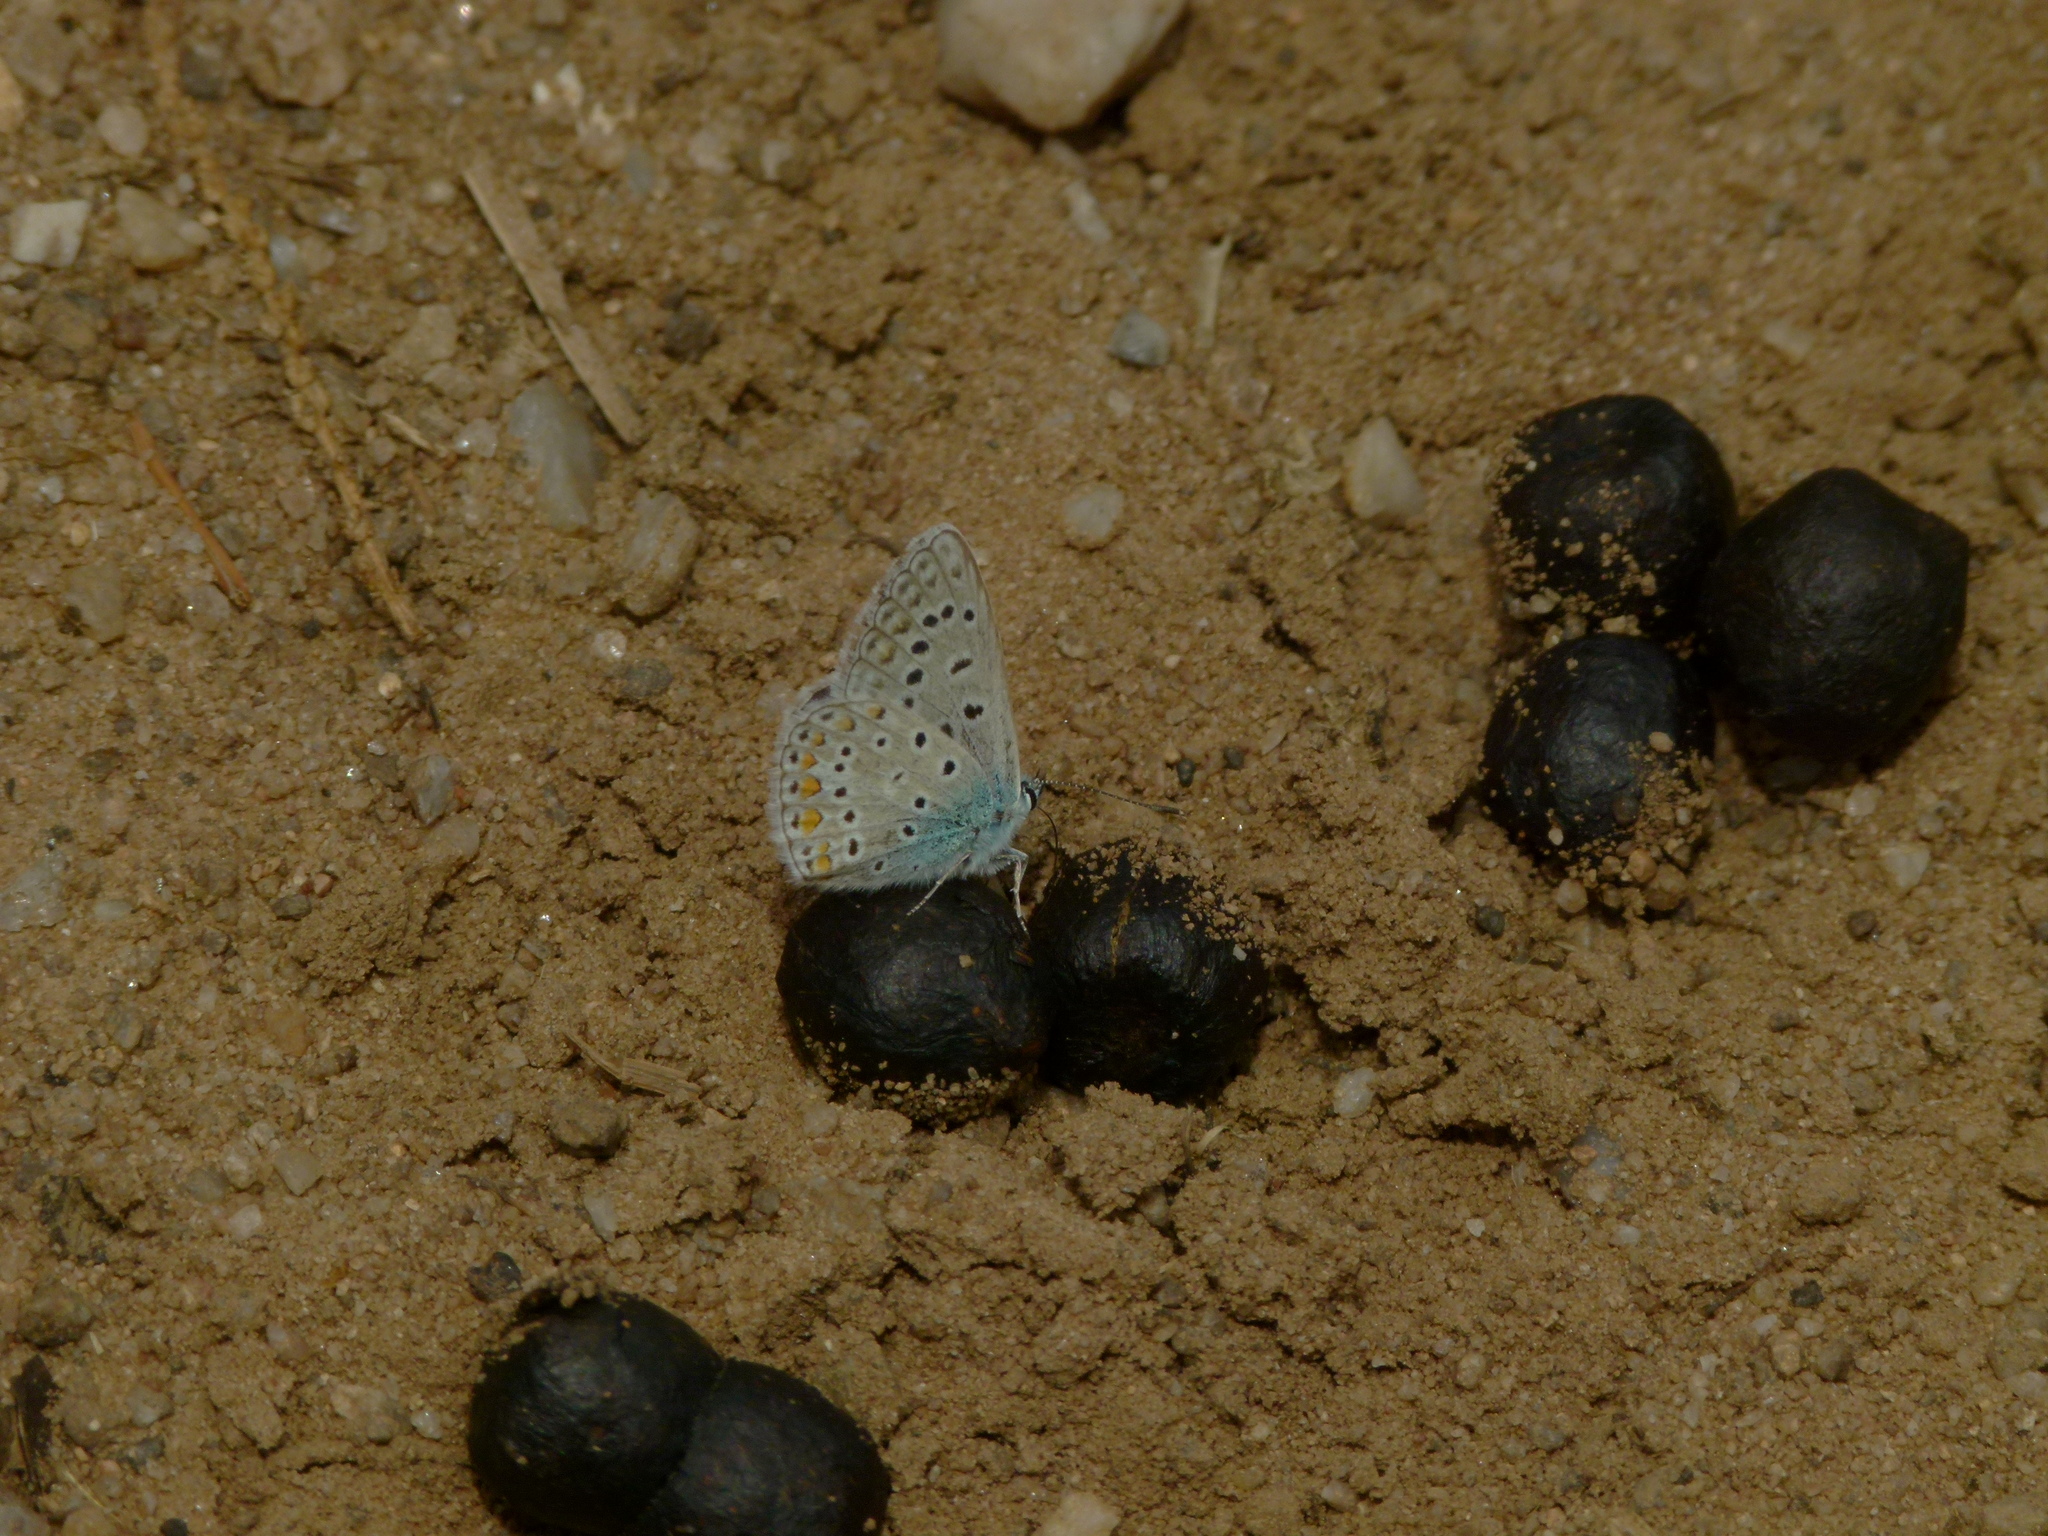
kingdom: Animalia
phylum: Arthropoda
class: Insecta
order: Lepidoptera
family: Lycaenidae
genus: Polyommatus
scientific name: Polyommatus icarus
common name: Common blue
